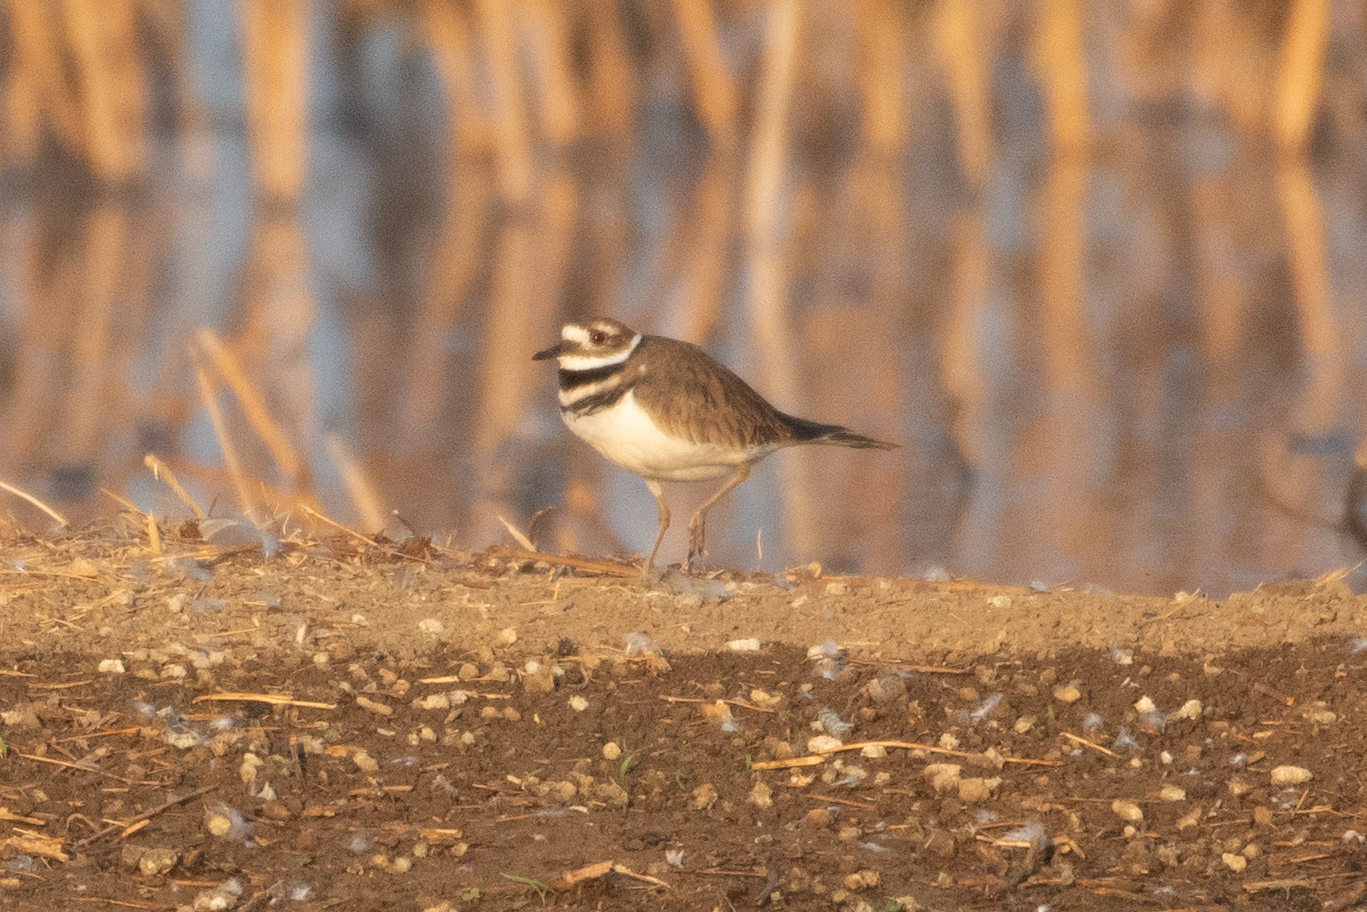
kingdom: Animalia
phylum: Chordata
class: Aves
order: Charadriiformes
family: Charadriidae
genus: Charadrius
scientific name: Charadrius vociferus
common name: Killdeer
